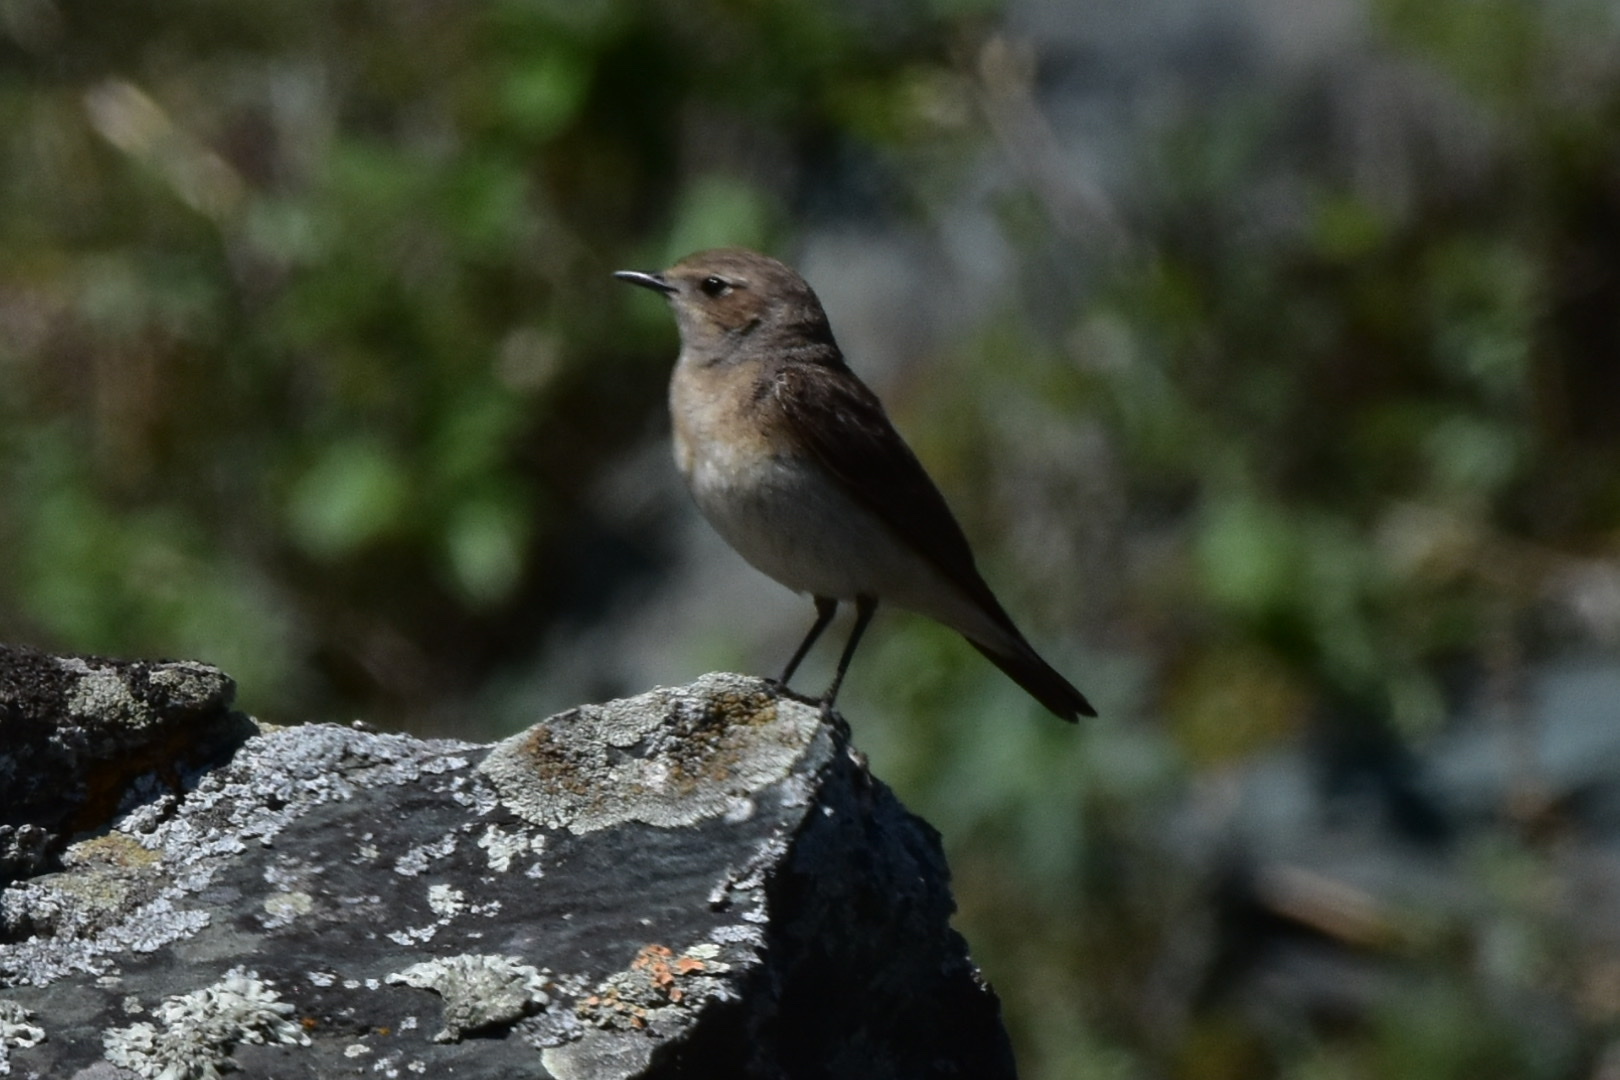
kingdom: Animalia
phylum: Chordata
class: Aves
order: Passeriformes
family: Muscicapidae
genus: Oenanthe
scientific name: Oenanthe pleschanka
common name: Pied wheatear
